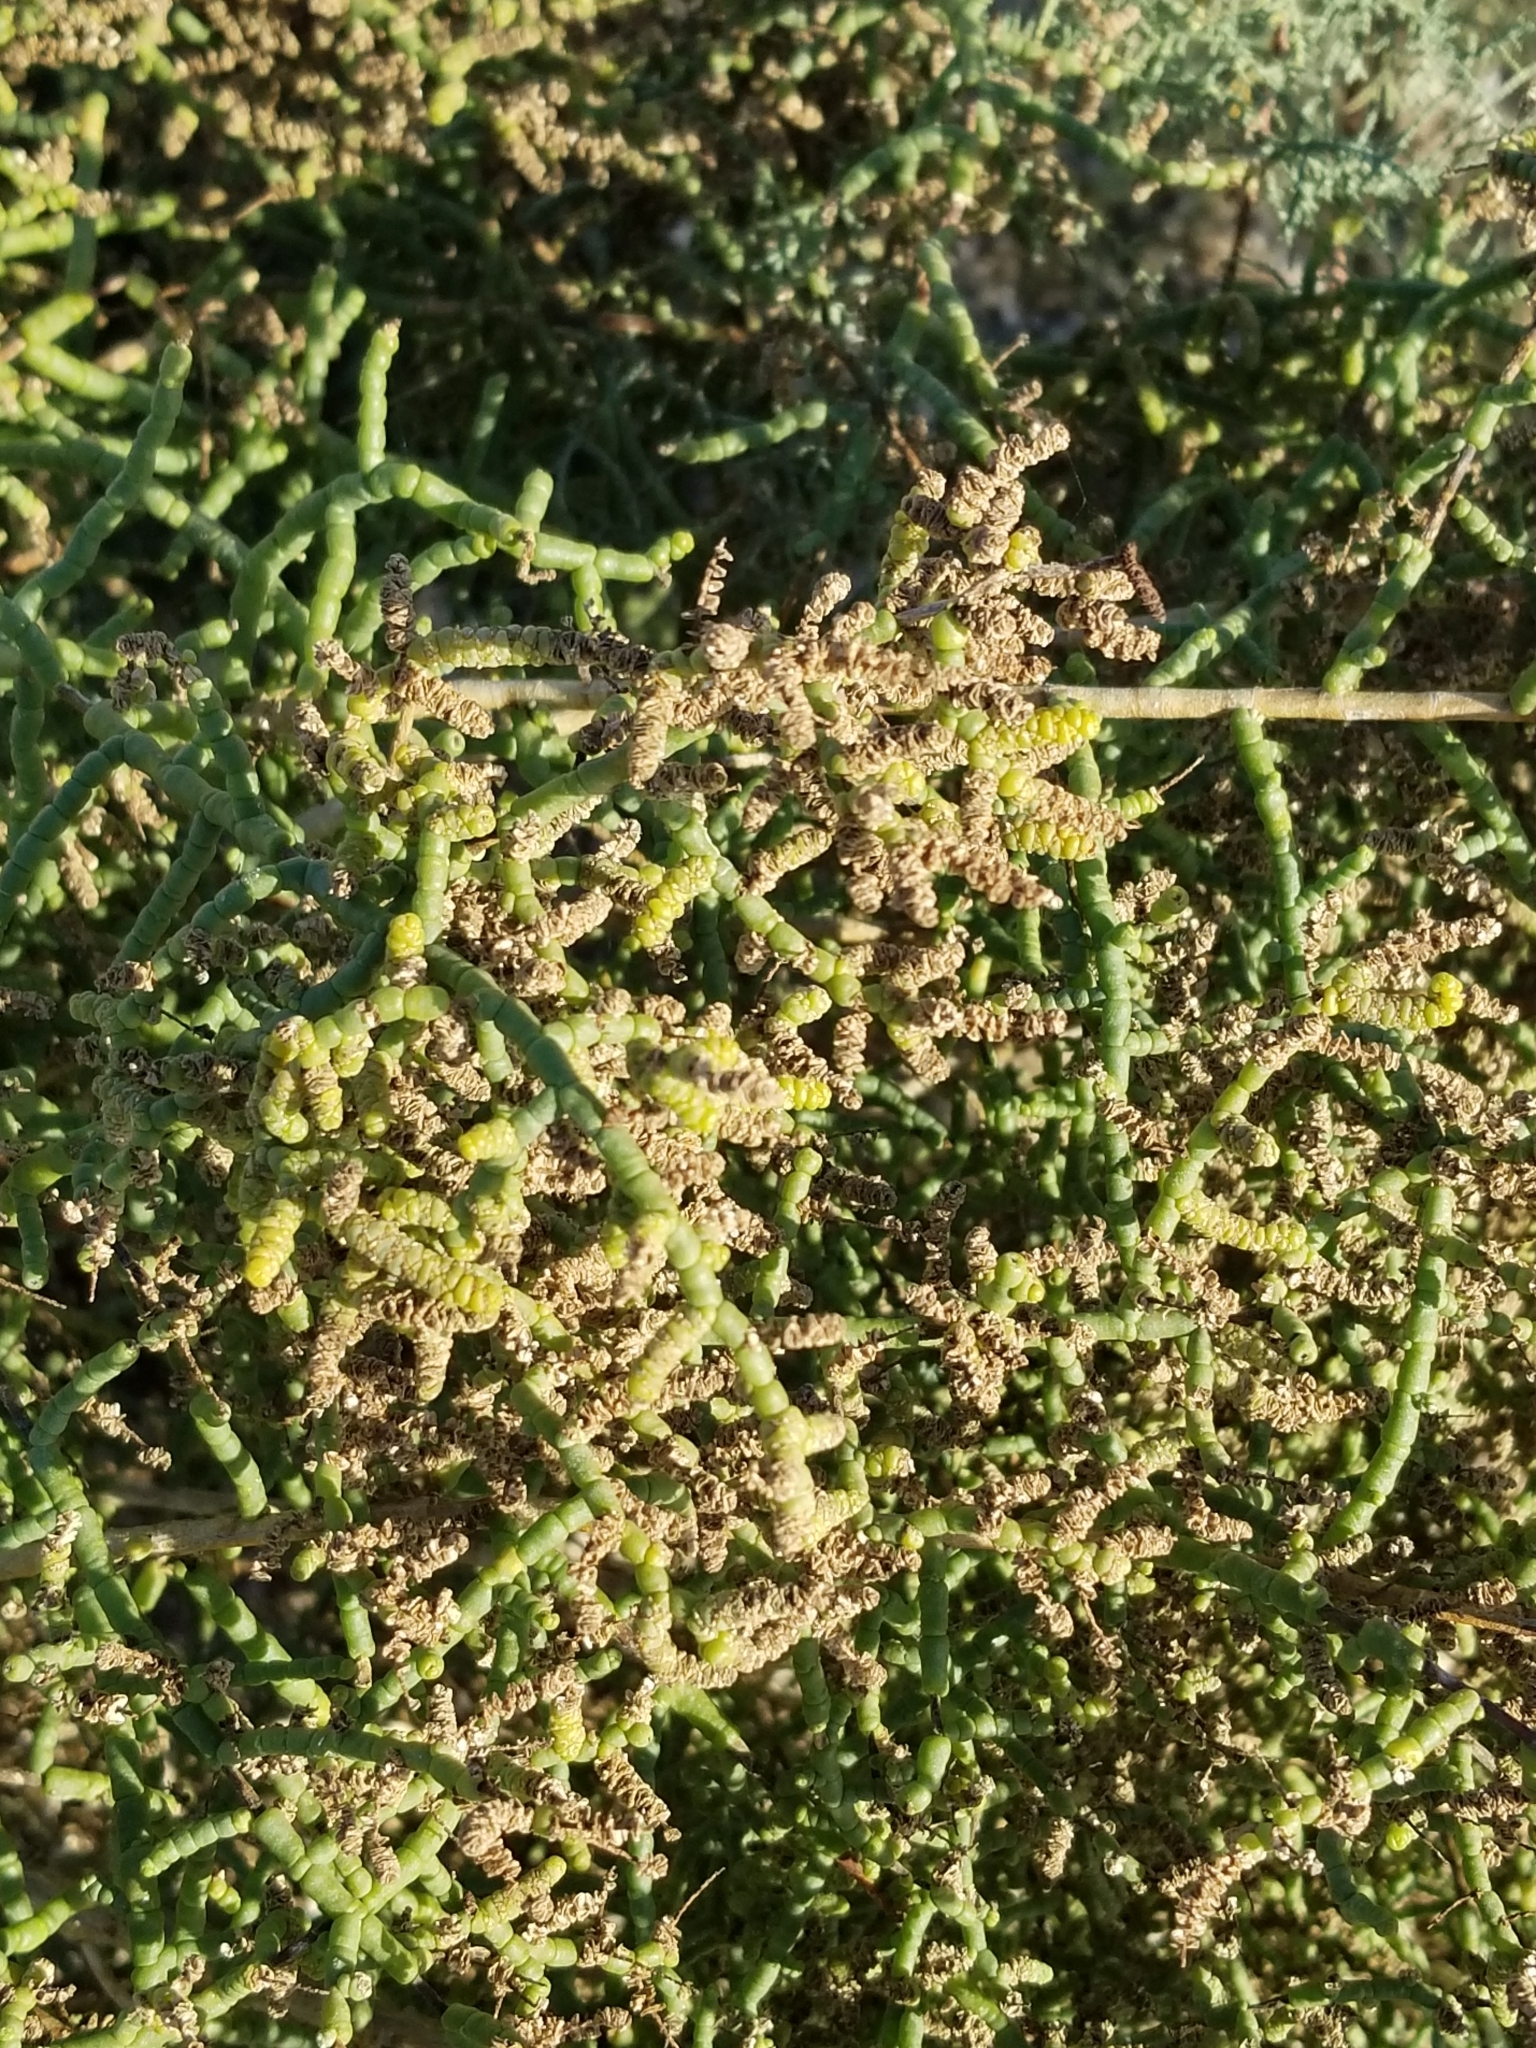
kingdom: Plantae
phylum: Tracheophyta
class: Magnoliopsida
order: Caryophyllales
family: Amaranthaceae
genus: Allenrolfea
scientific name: Allenrolfea occidentalis
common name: Iodine-bush
